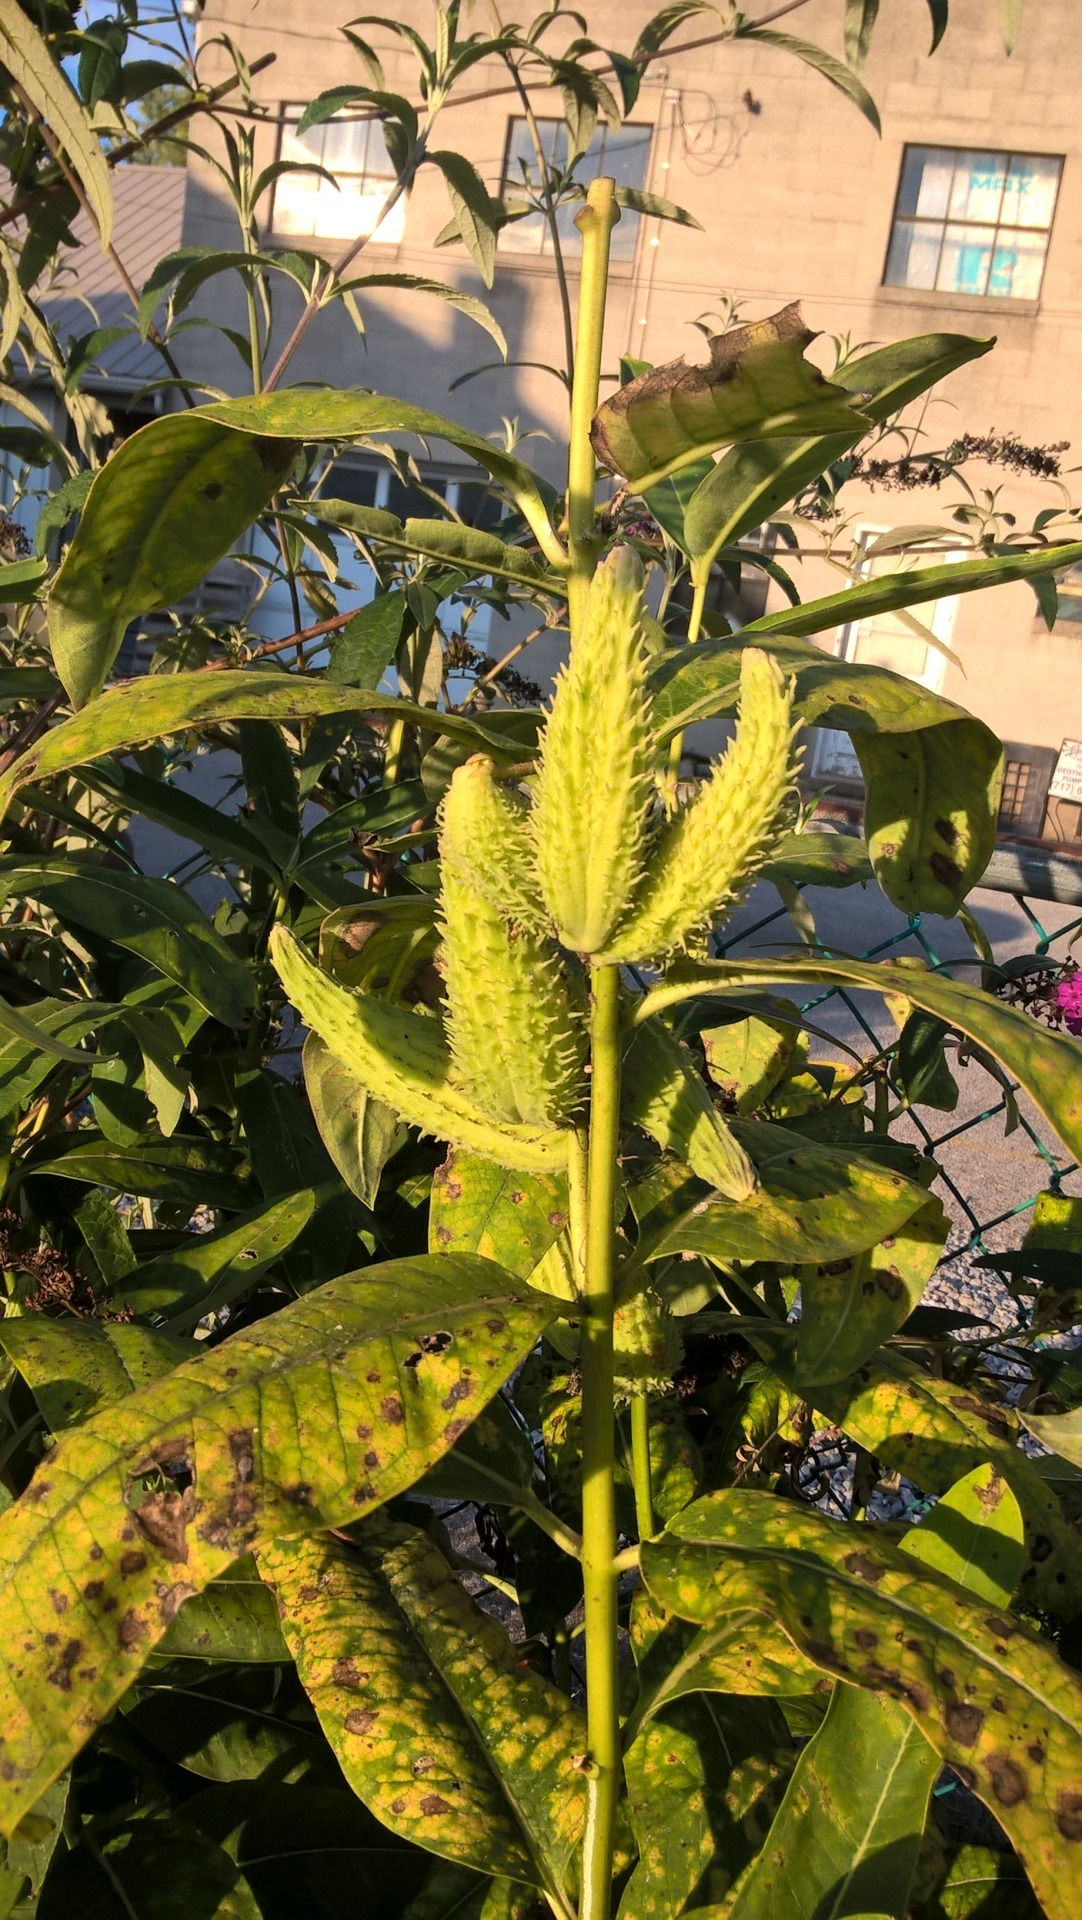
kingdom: Plantae
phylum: Tracheophyta
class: Magnoliopsida
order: Gentianales
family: Apocynaceae
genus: Asclepias
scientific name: Asclepias syriaca
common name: Common milkweed
